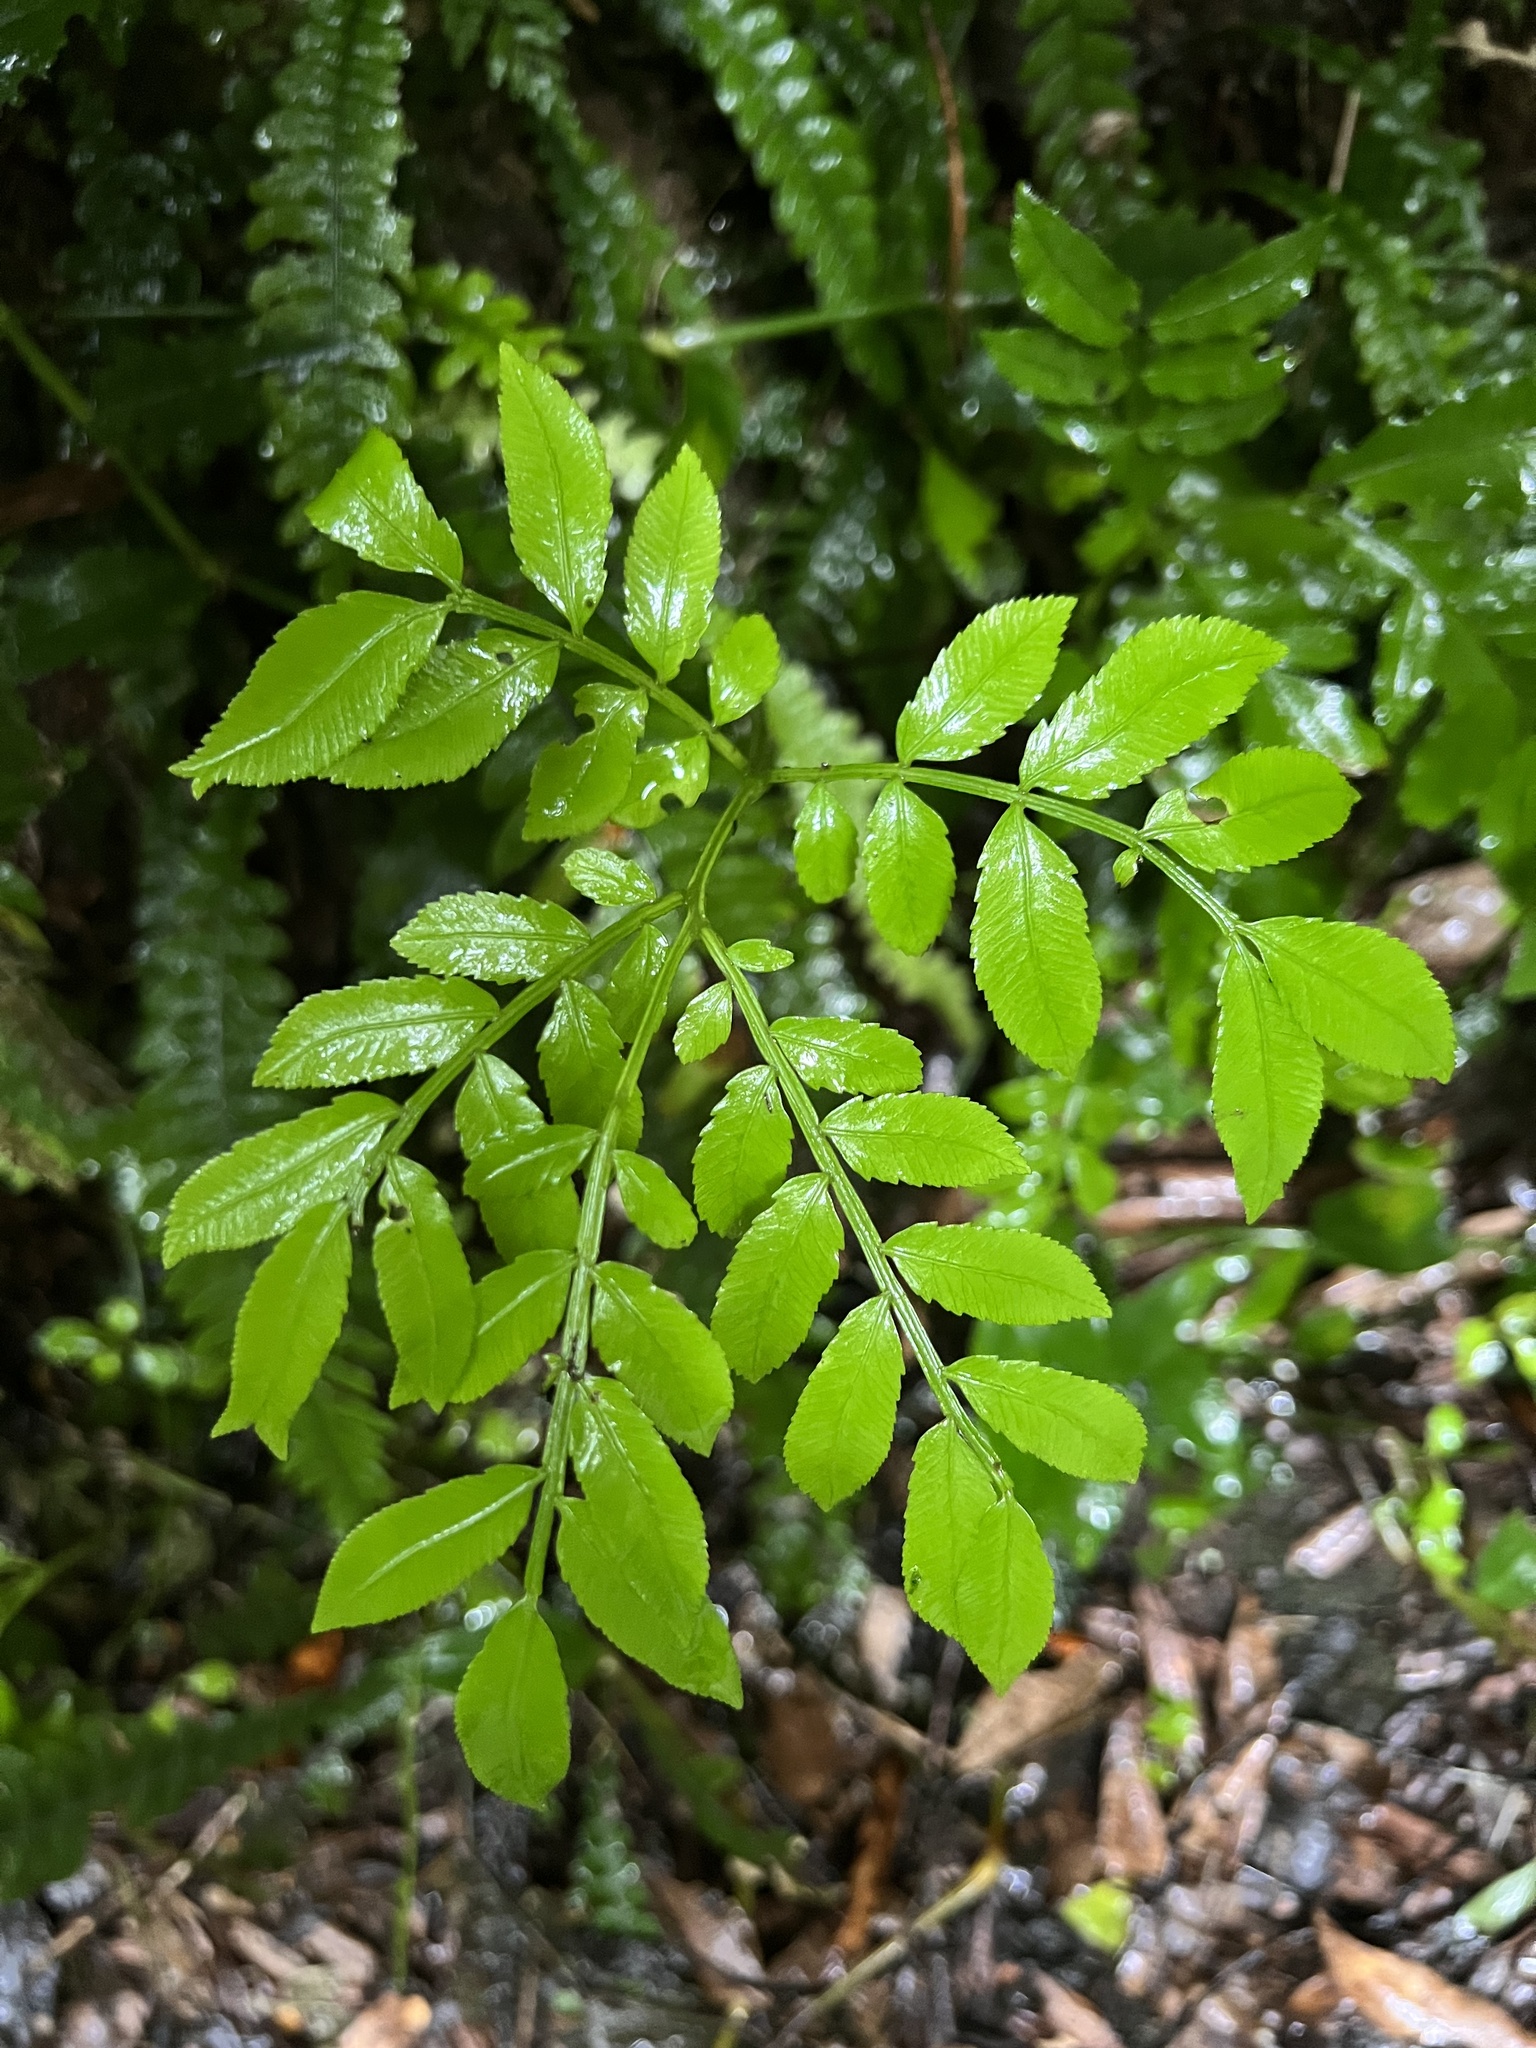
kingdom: Plantae
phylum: Tracheophyta
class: Polypodiopsida
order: Marattiales
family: Marattiaceae
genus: Ptisana
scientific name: Ptisana salicina
